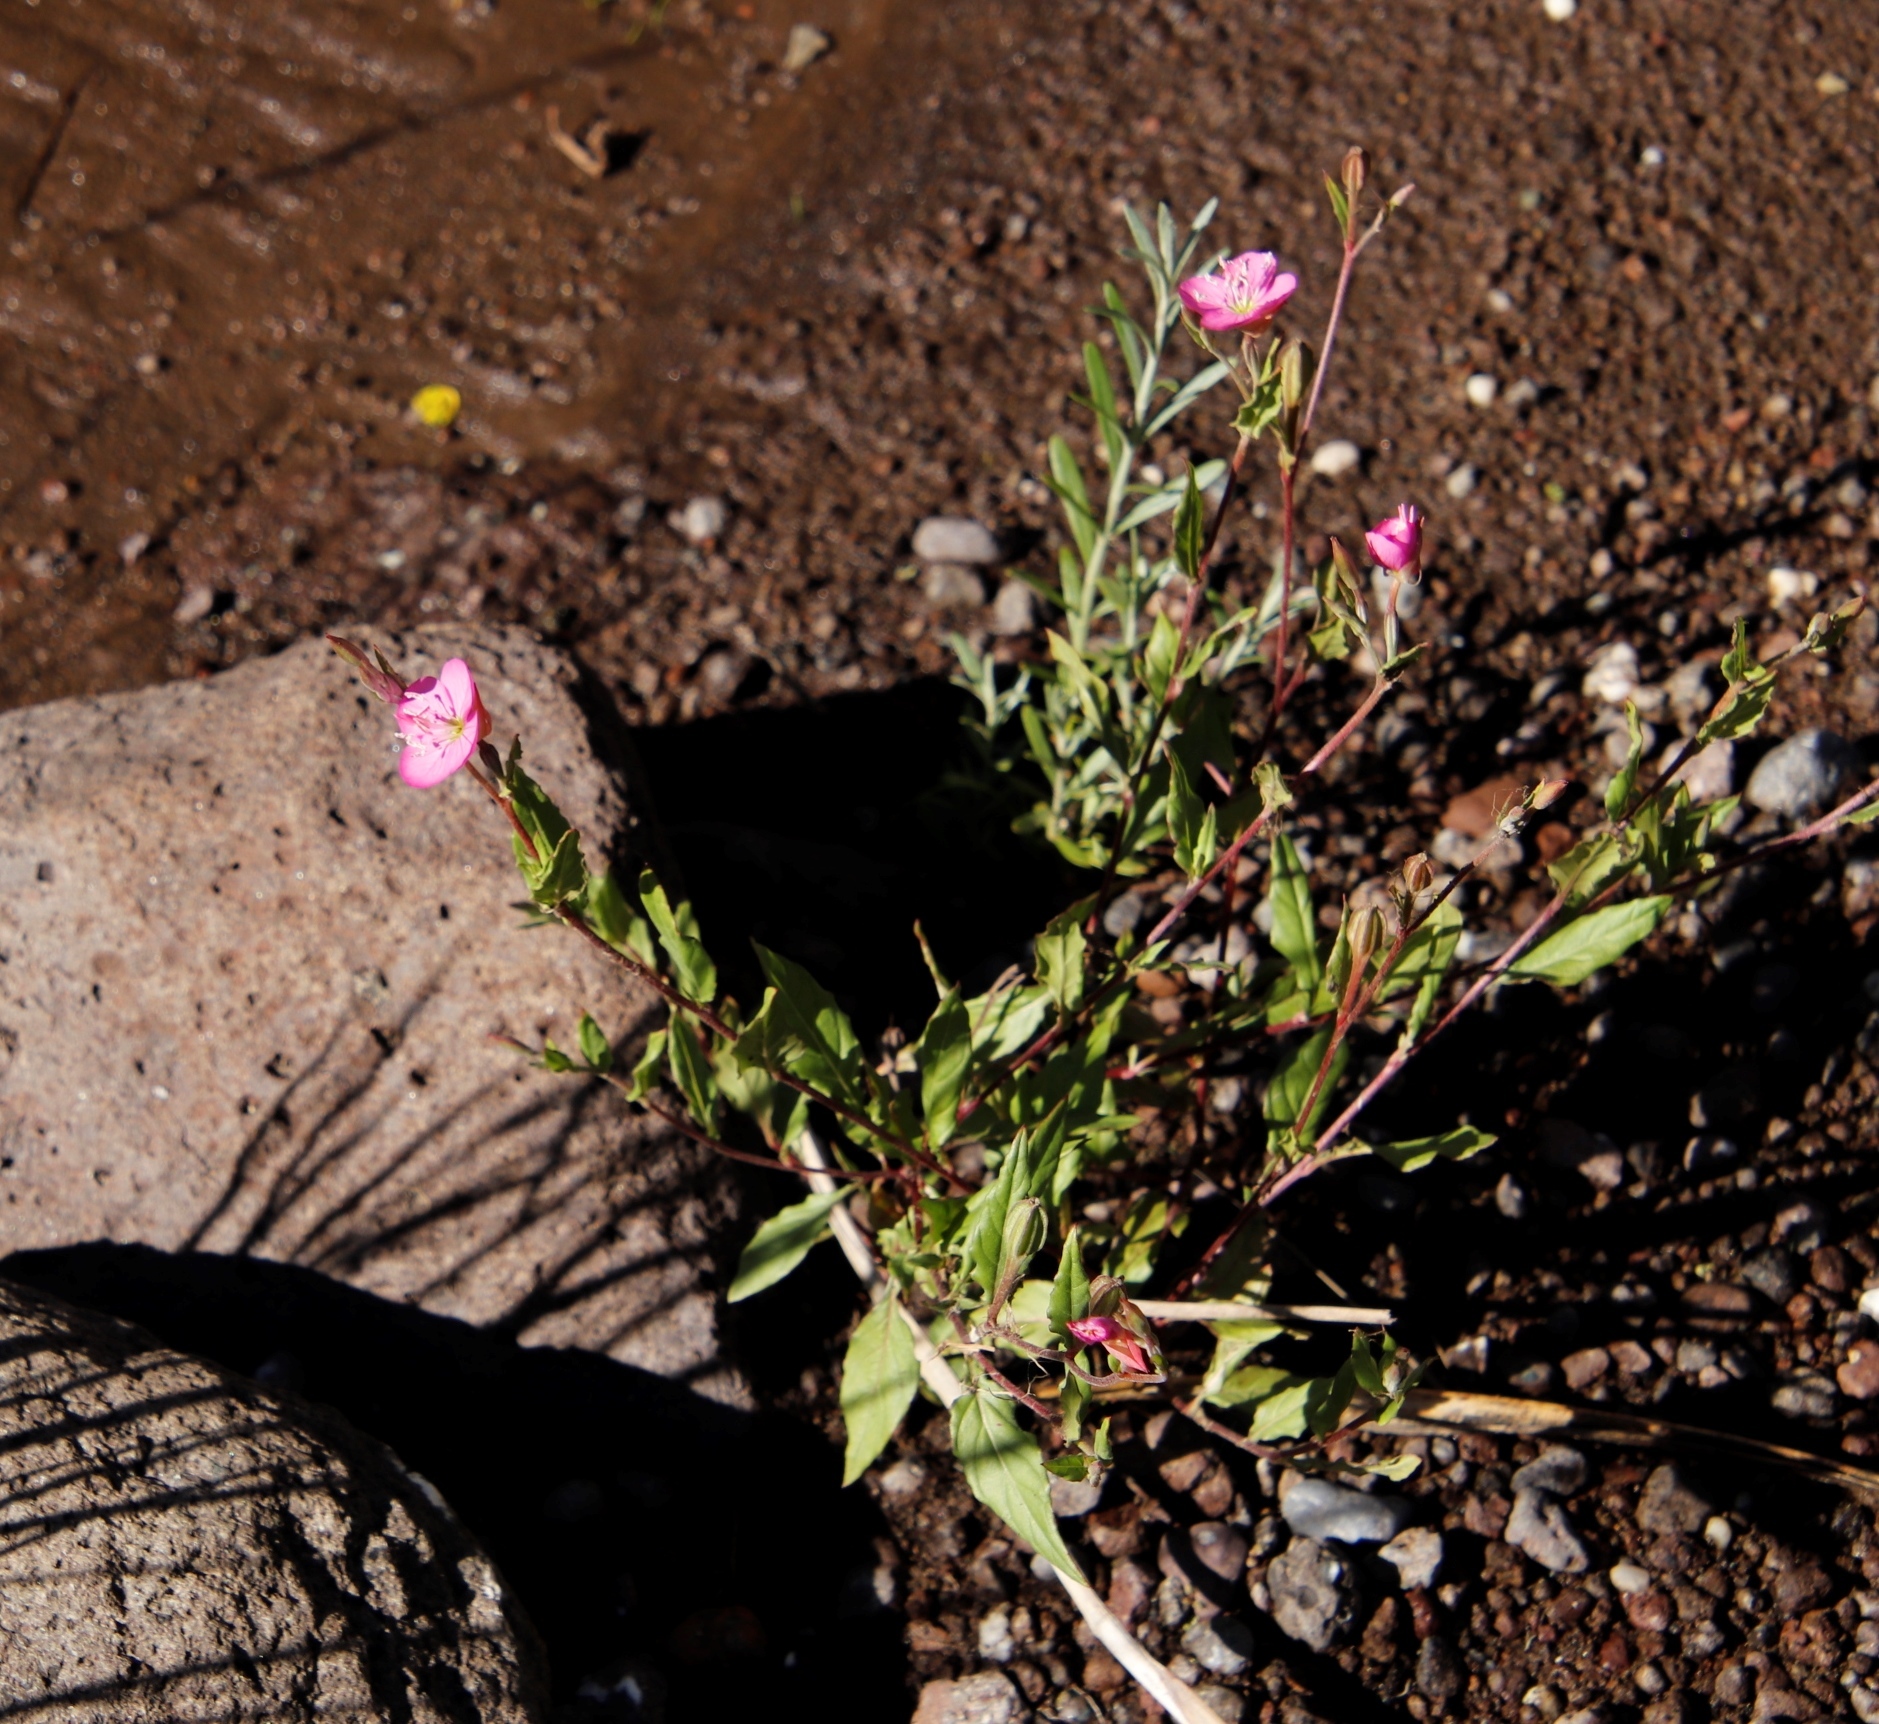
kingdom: Plantae
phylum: Tracheophyta
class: Magnoliopsida
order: Myrtales
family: Onagraceae
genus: Oenothera
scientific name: Oenothera rosea
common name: Rosy evening-primrose
